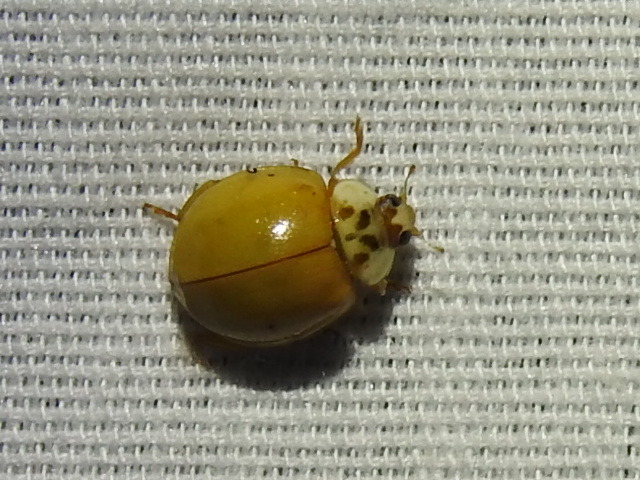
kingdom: Animalia
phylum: Arthropoda
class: Insecta
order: Coleoptera
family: Coccinellidae
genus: Harmonia
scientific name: Harmonia axyridis
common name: Harlequin ladybird
